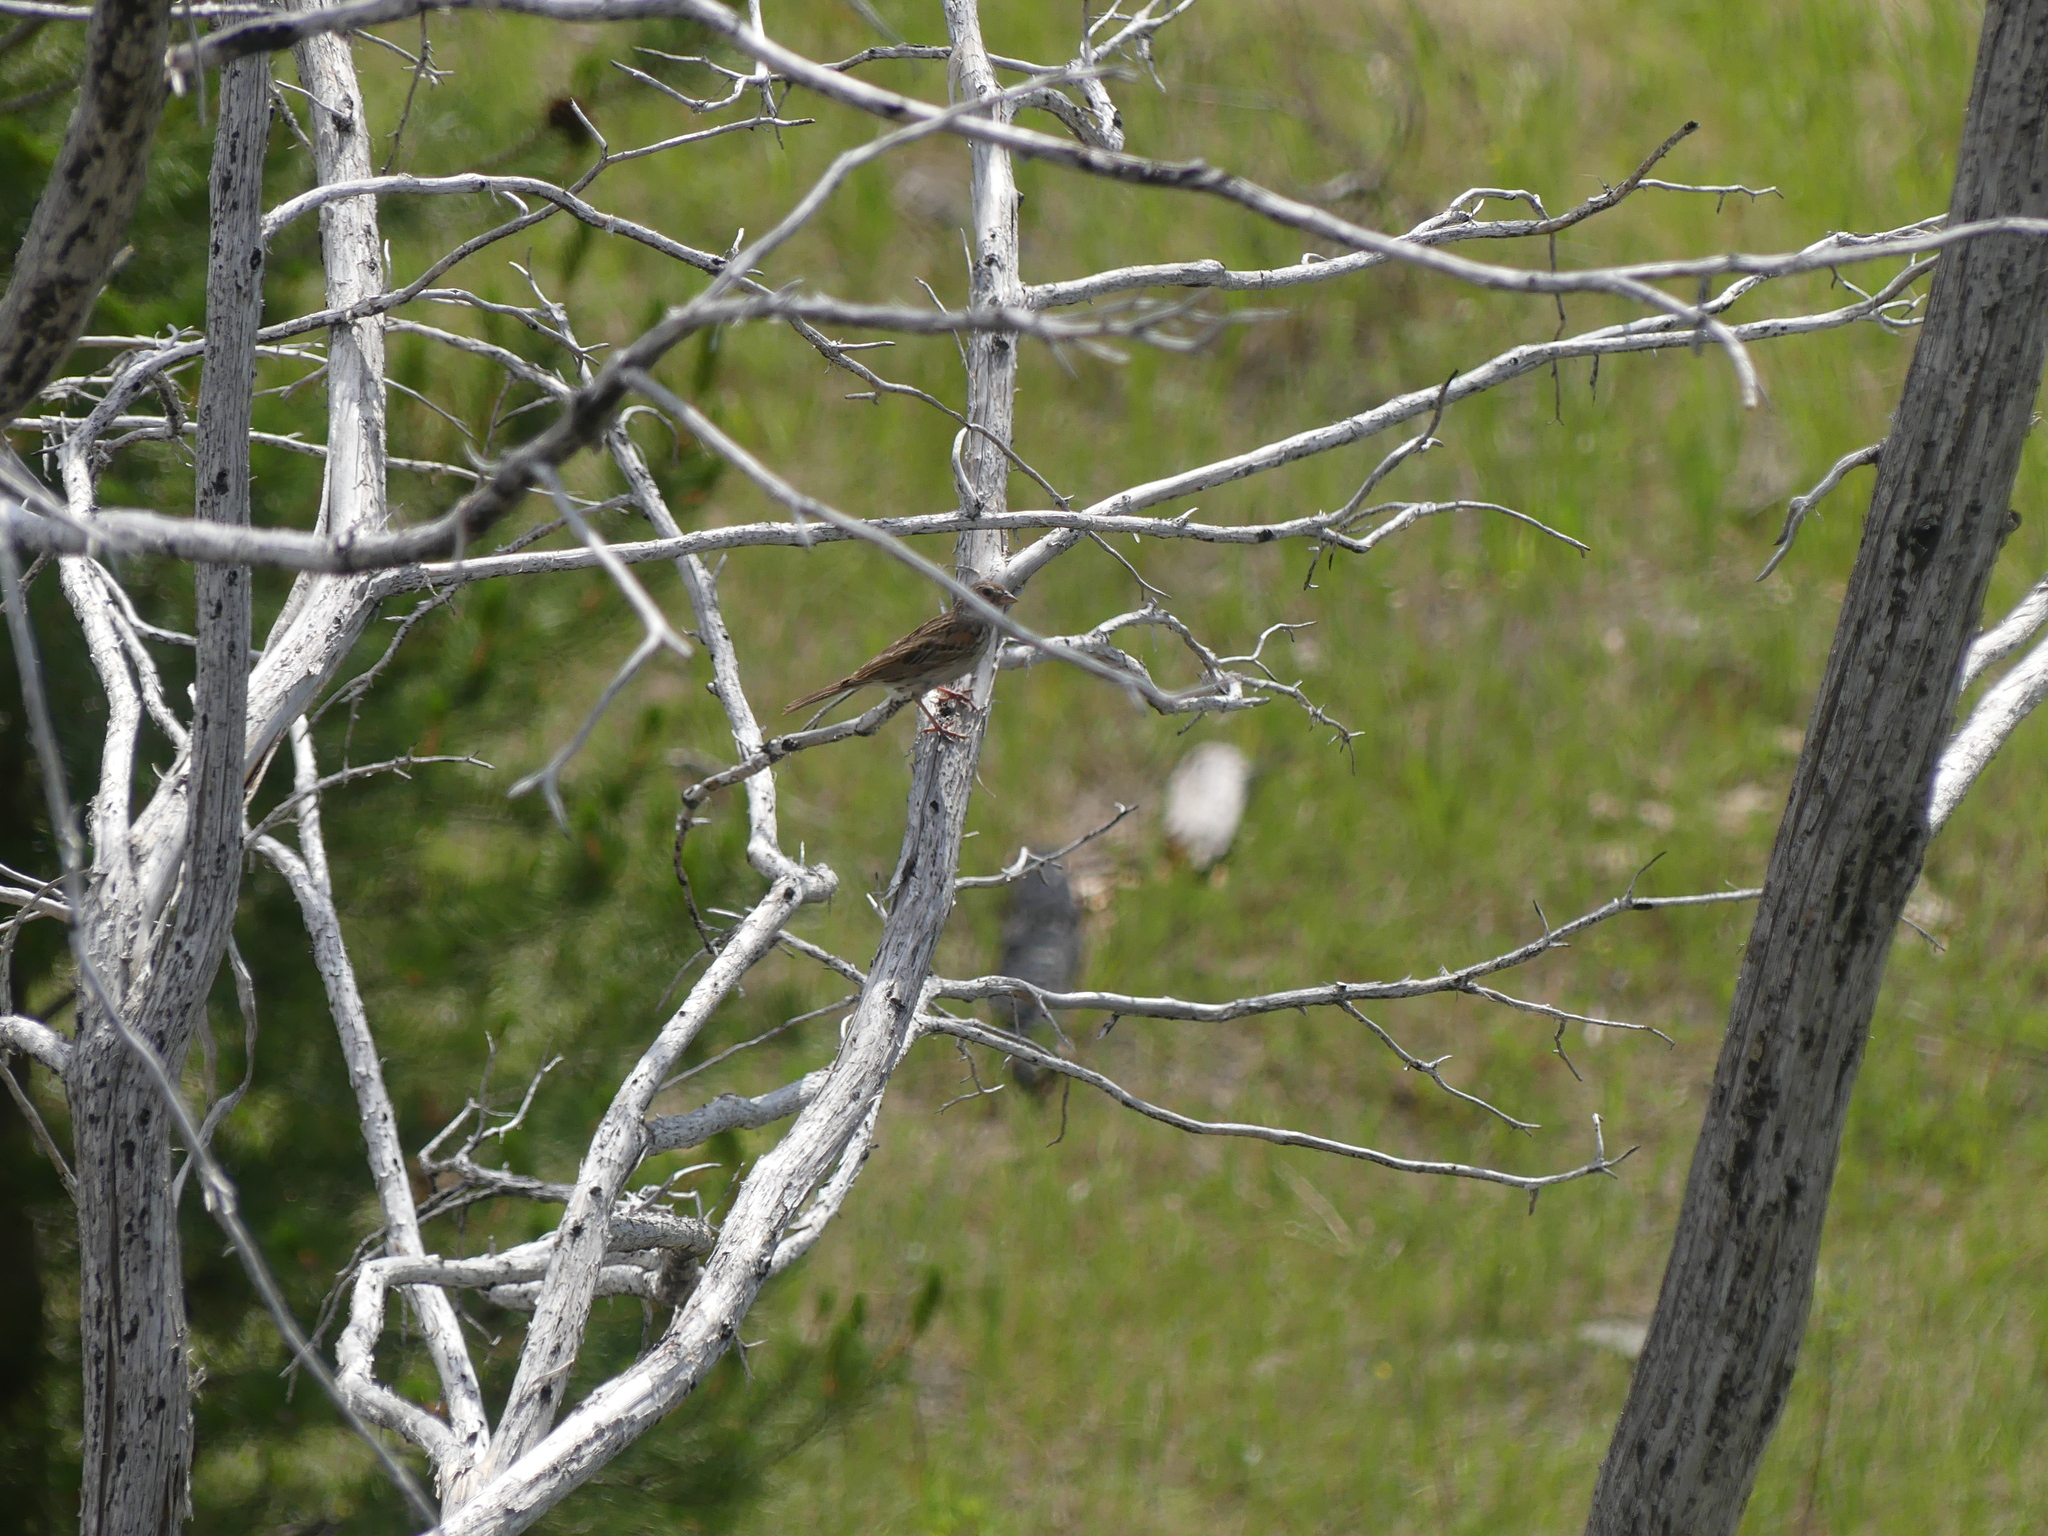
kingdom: Animalia
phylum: Chordata
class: Aves
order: Passeriformes
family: Passerellidae
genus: Pooecetes
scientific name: Pooecetes gramineus
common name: Vesper sparrow
